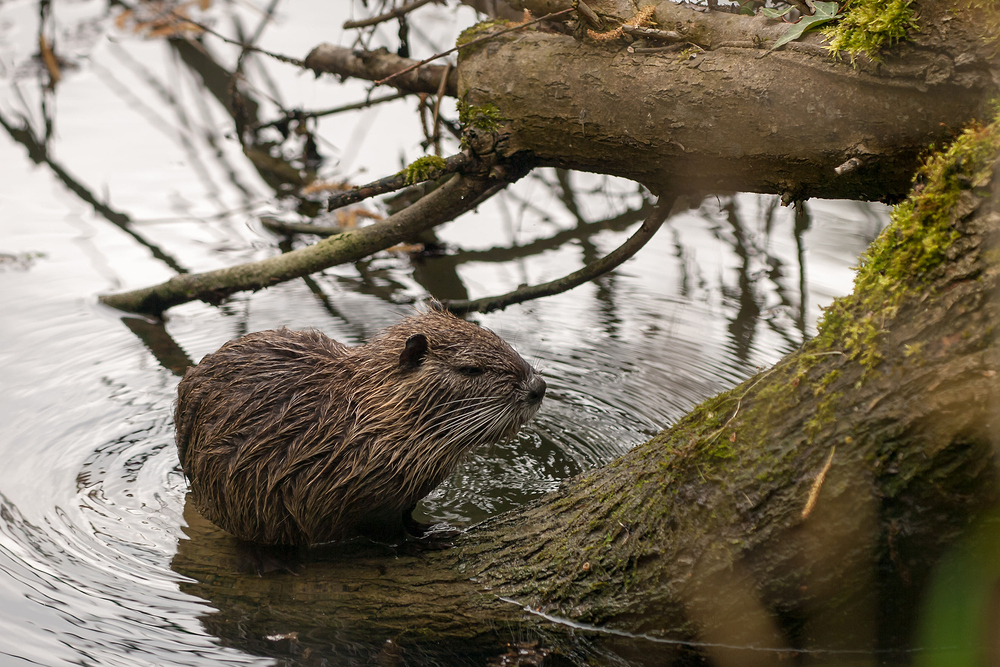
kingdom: Animalia
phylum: Chordata
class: Mammalia
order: Rodentia
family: Myocastoridae
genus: Myocastor
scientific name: Myocastor coypus
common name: Coypu
